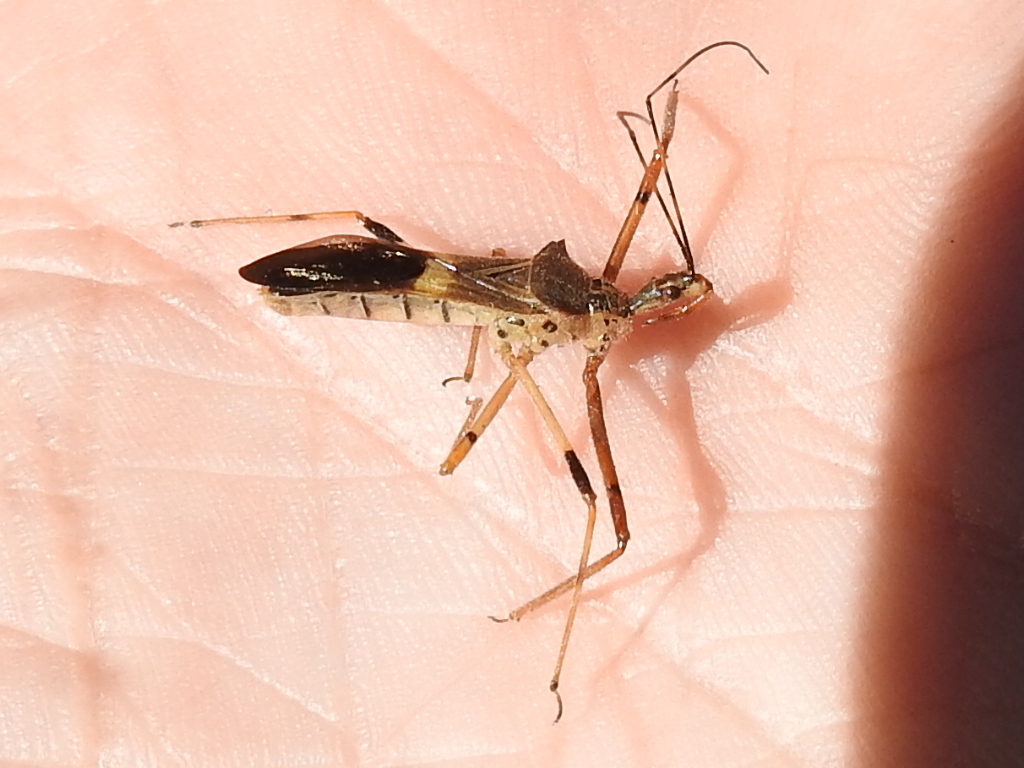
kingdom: Animalia
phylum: Arthropoda
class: Insecta
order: Hemiptera
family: Reduviidae
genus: Zelus
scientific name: Zelus janus
